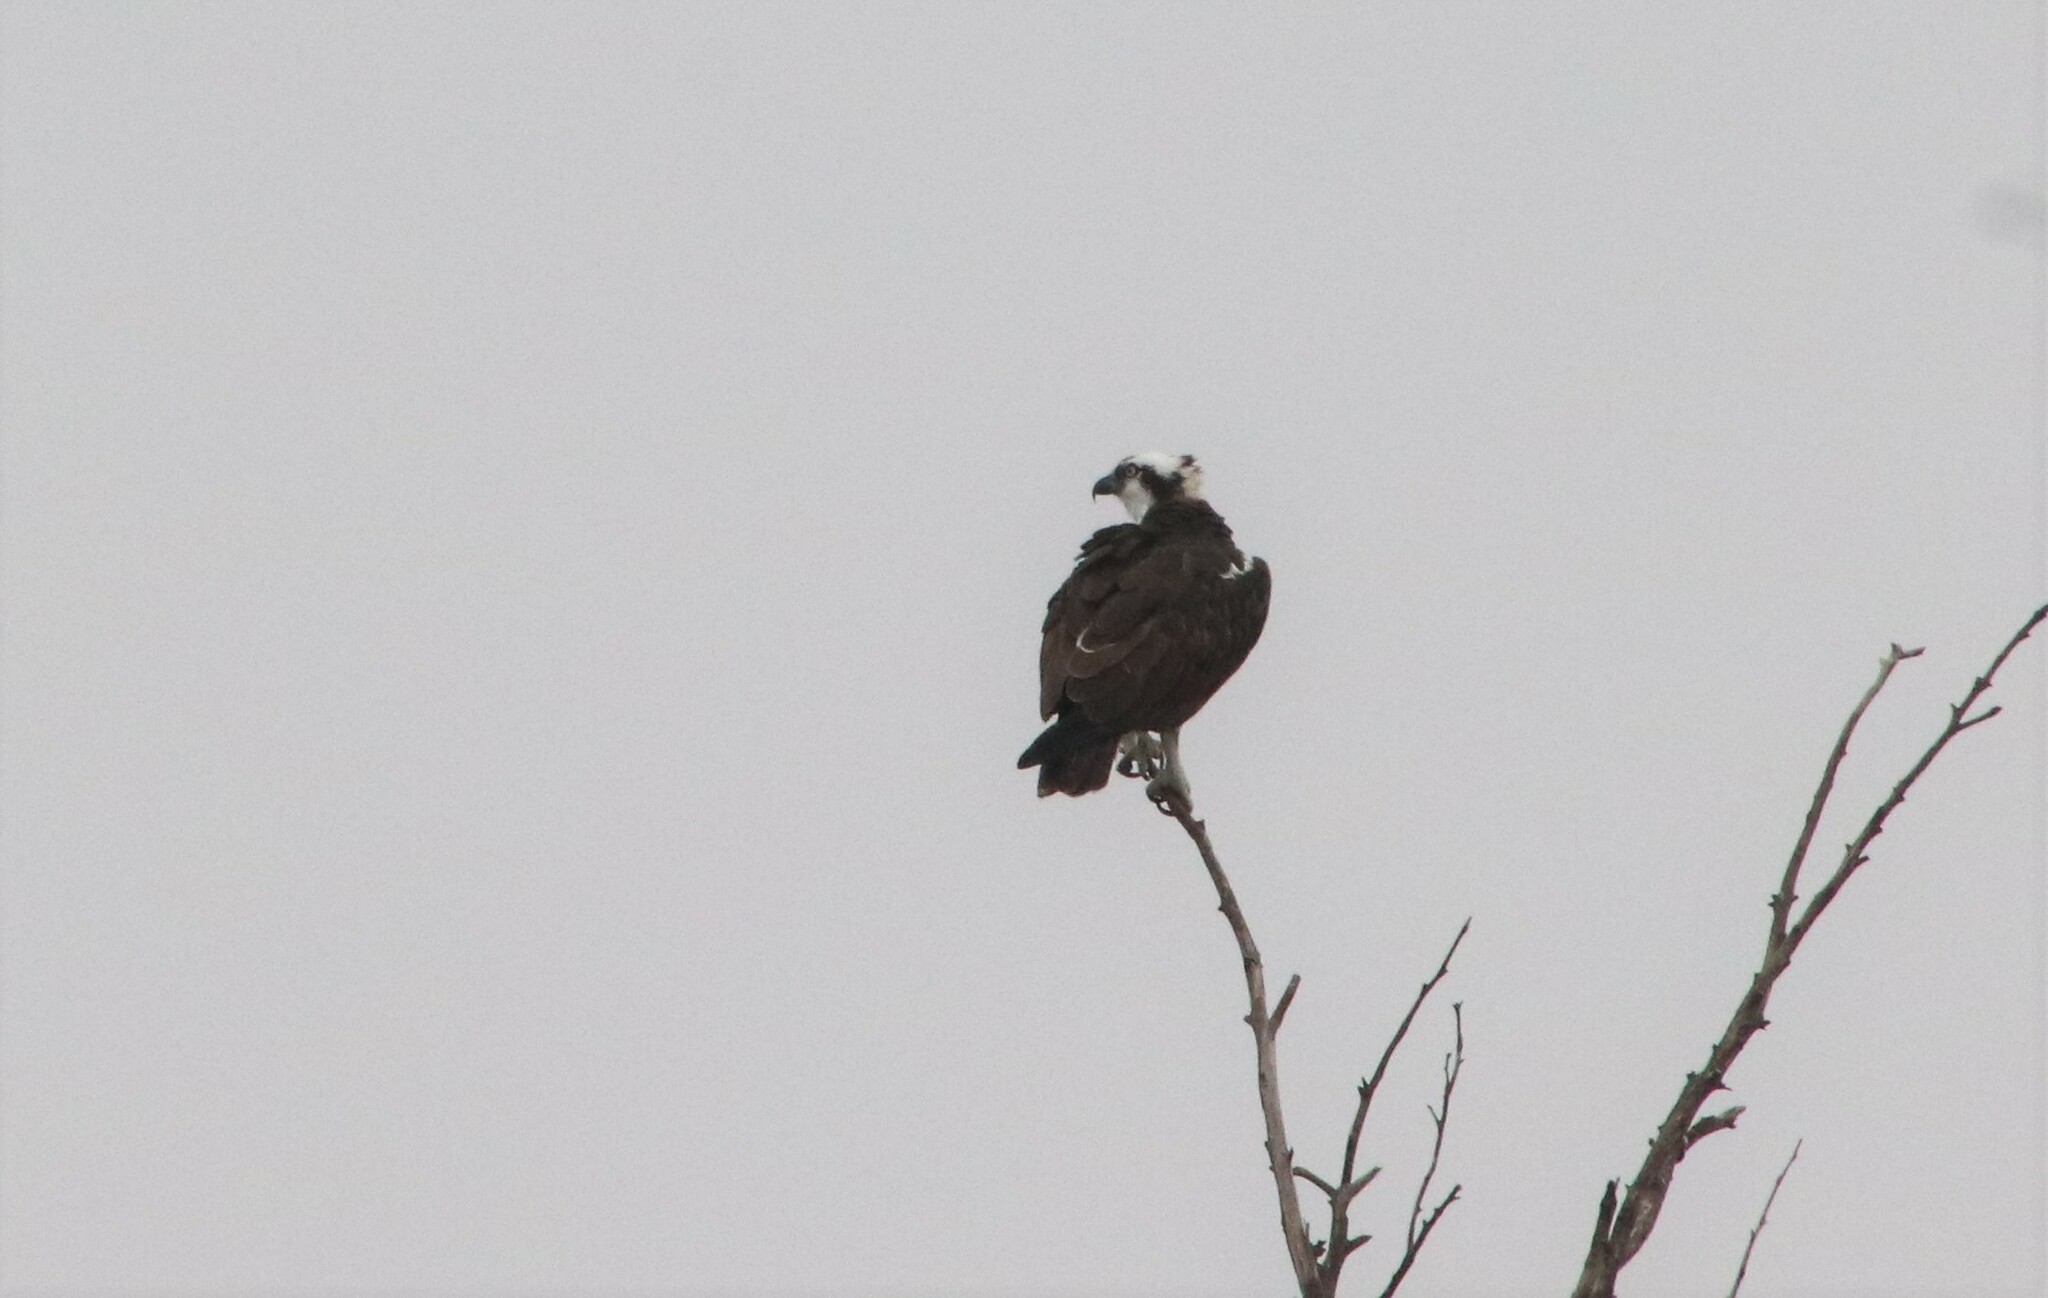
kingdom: Animalia
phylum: Chordata
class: Aves
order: Accipitriformes
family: Pandionidae
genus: Pandion
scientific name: Pandion haliaetus
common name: Osprey
